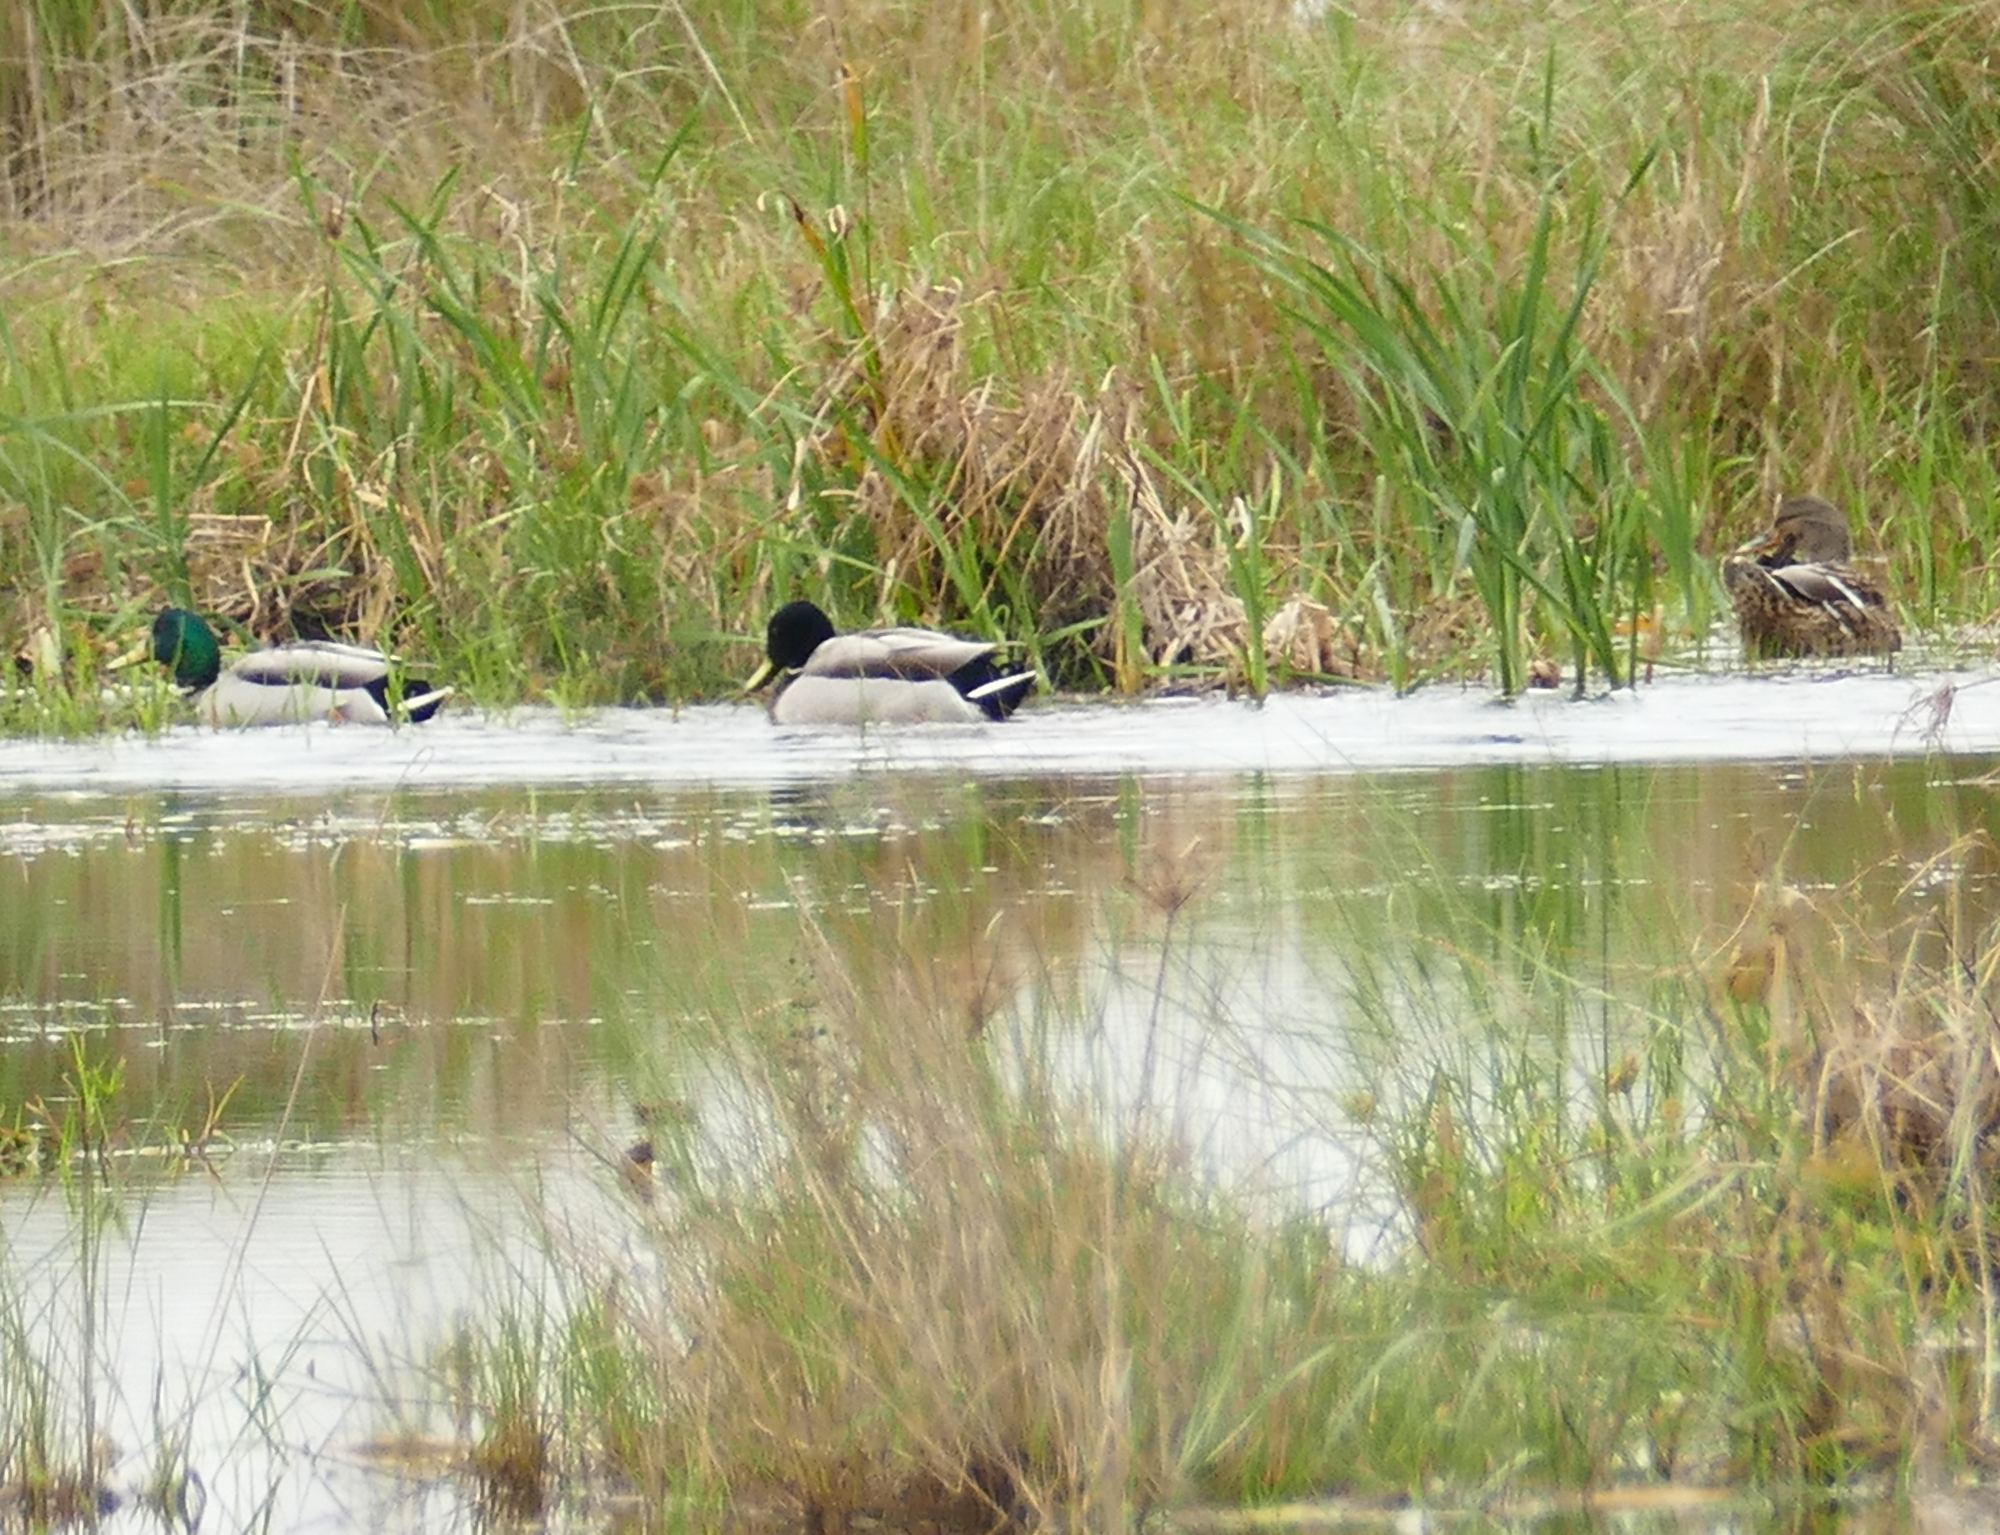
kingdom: Animalia
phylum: Chordata
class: Aves
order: Anseriformes
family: Anatidae
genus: Anas
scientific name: Anas platyrhynchos
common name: Mallard
